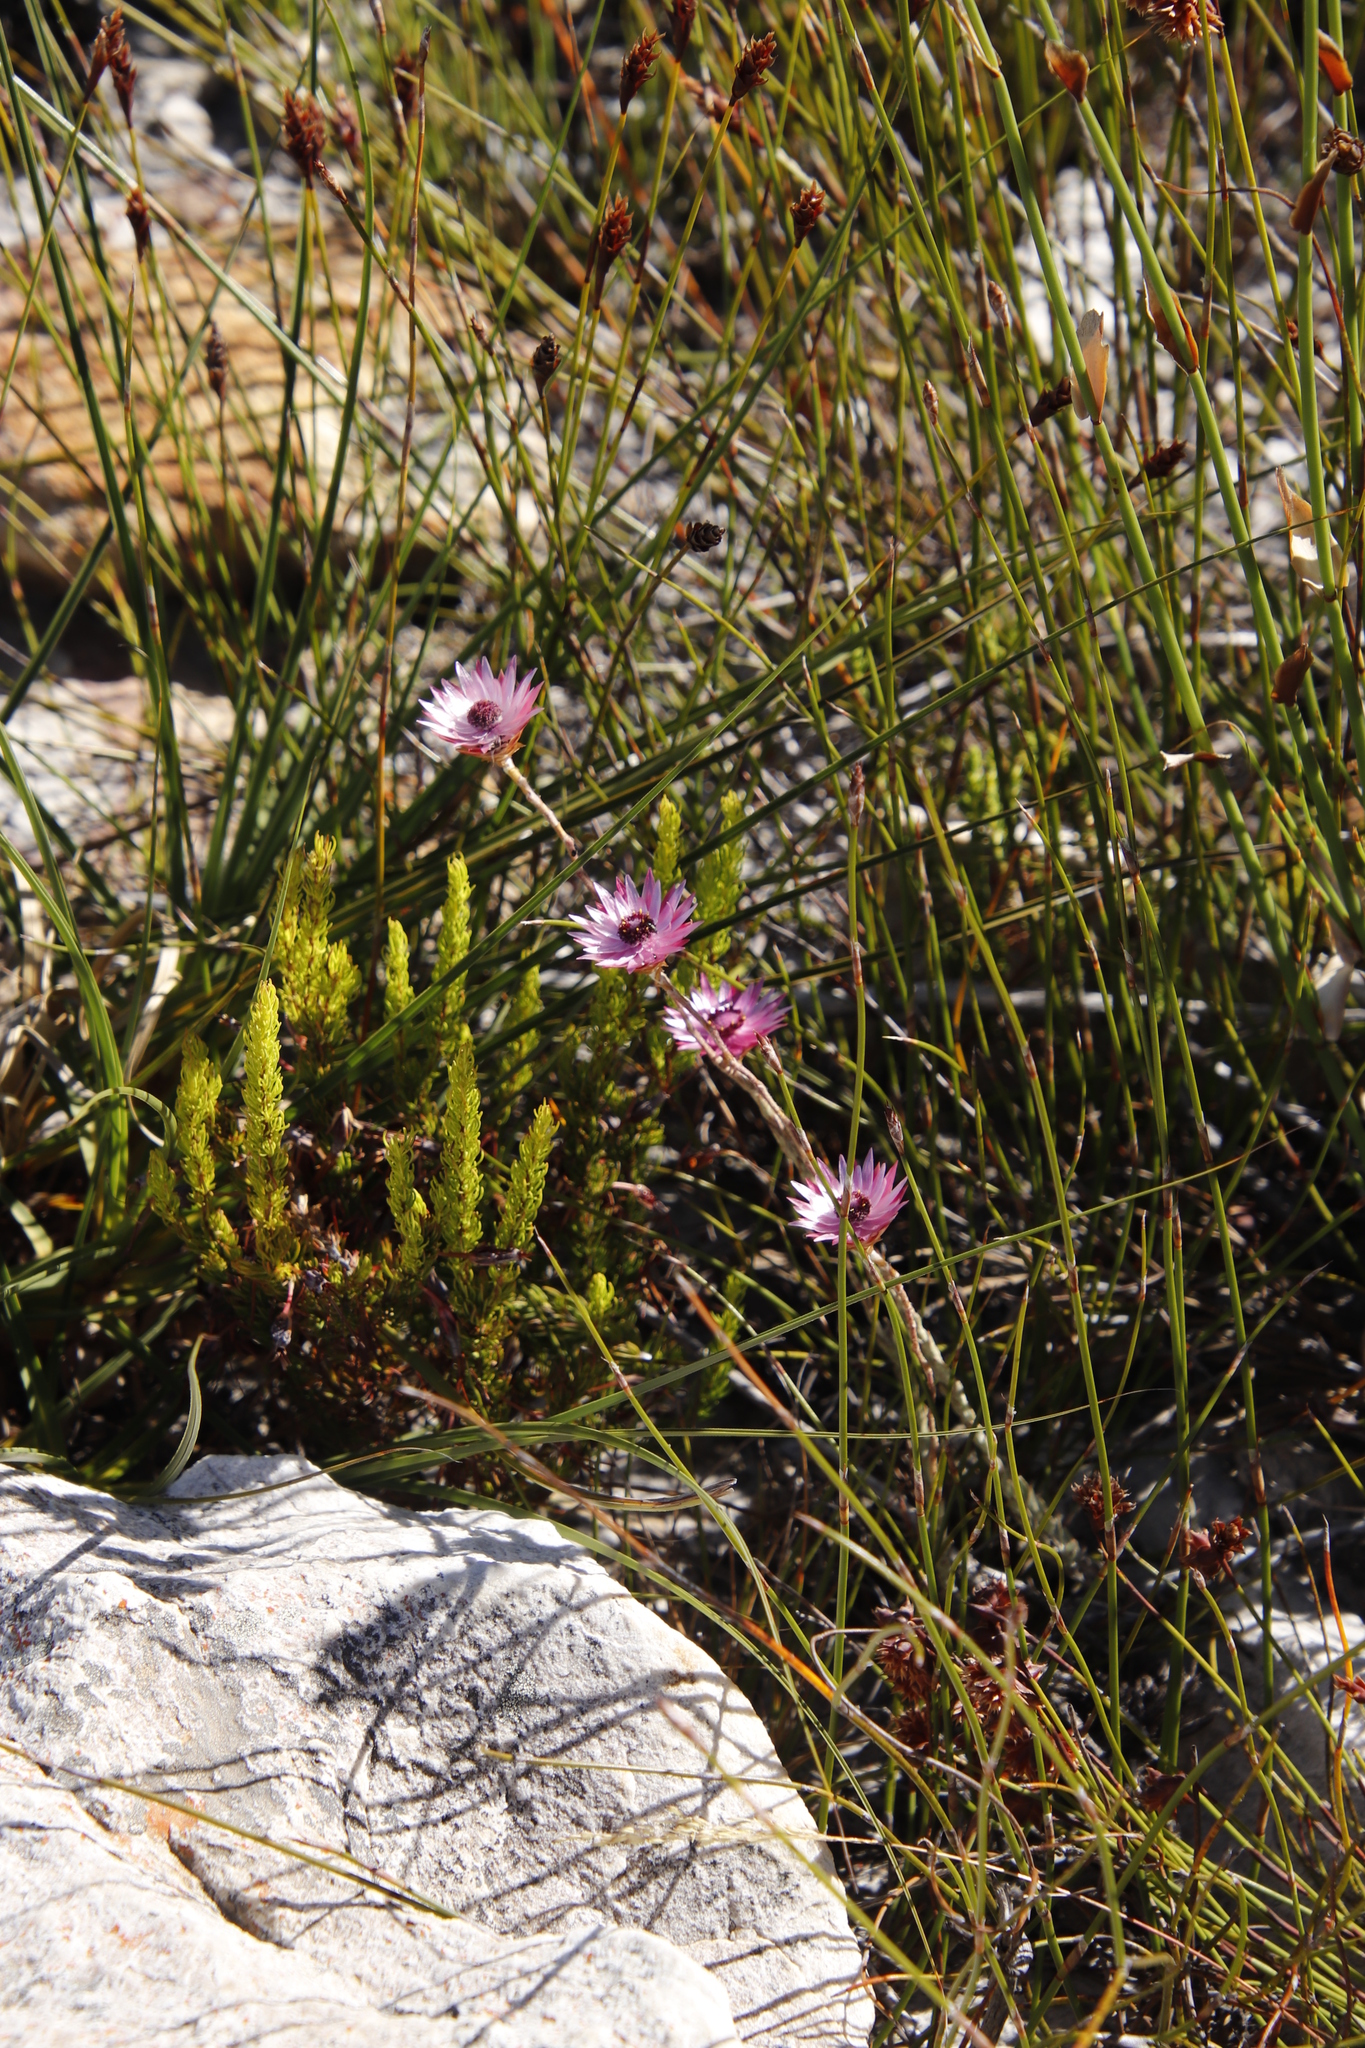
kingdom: Plantae
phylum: Tracheophyta
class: Magnoliopsida
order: Asterales
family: Asteraceae
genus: Syncarpha
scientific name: Syncarpha canescens
